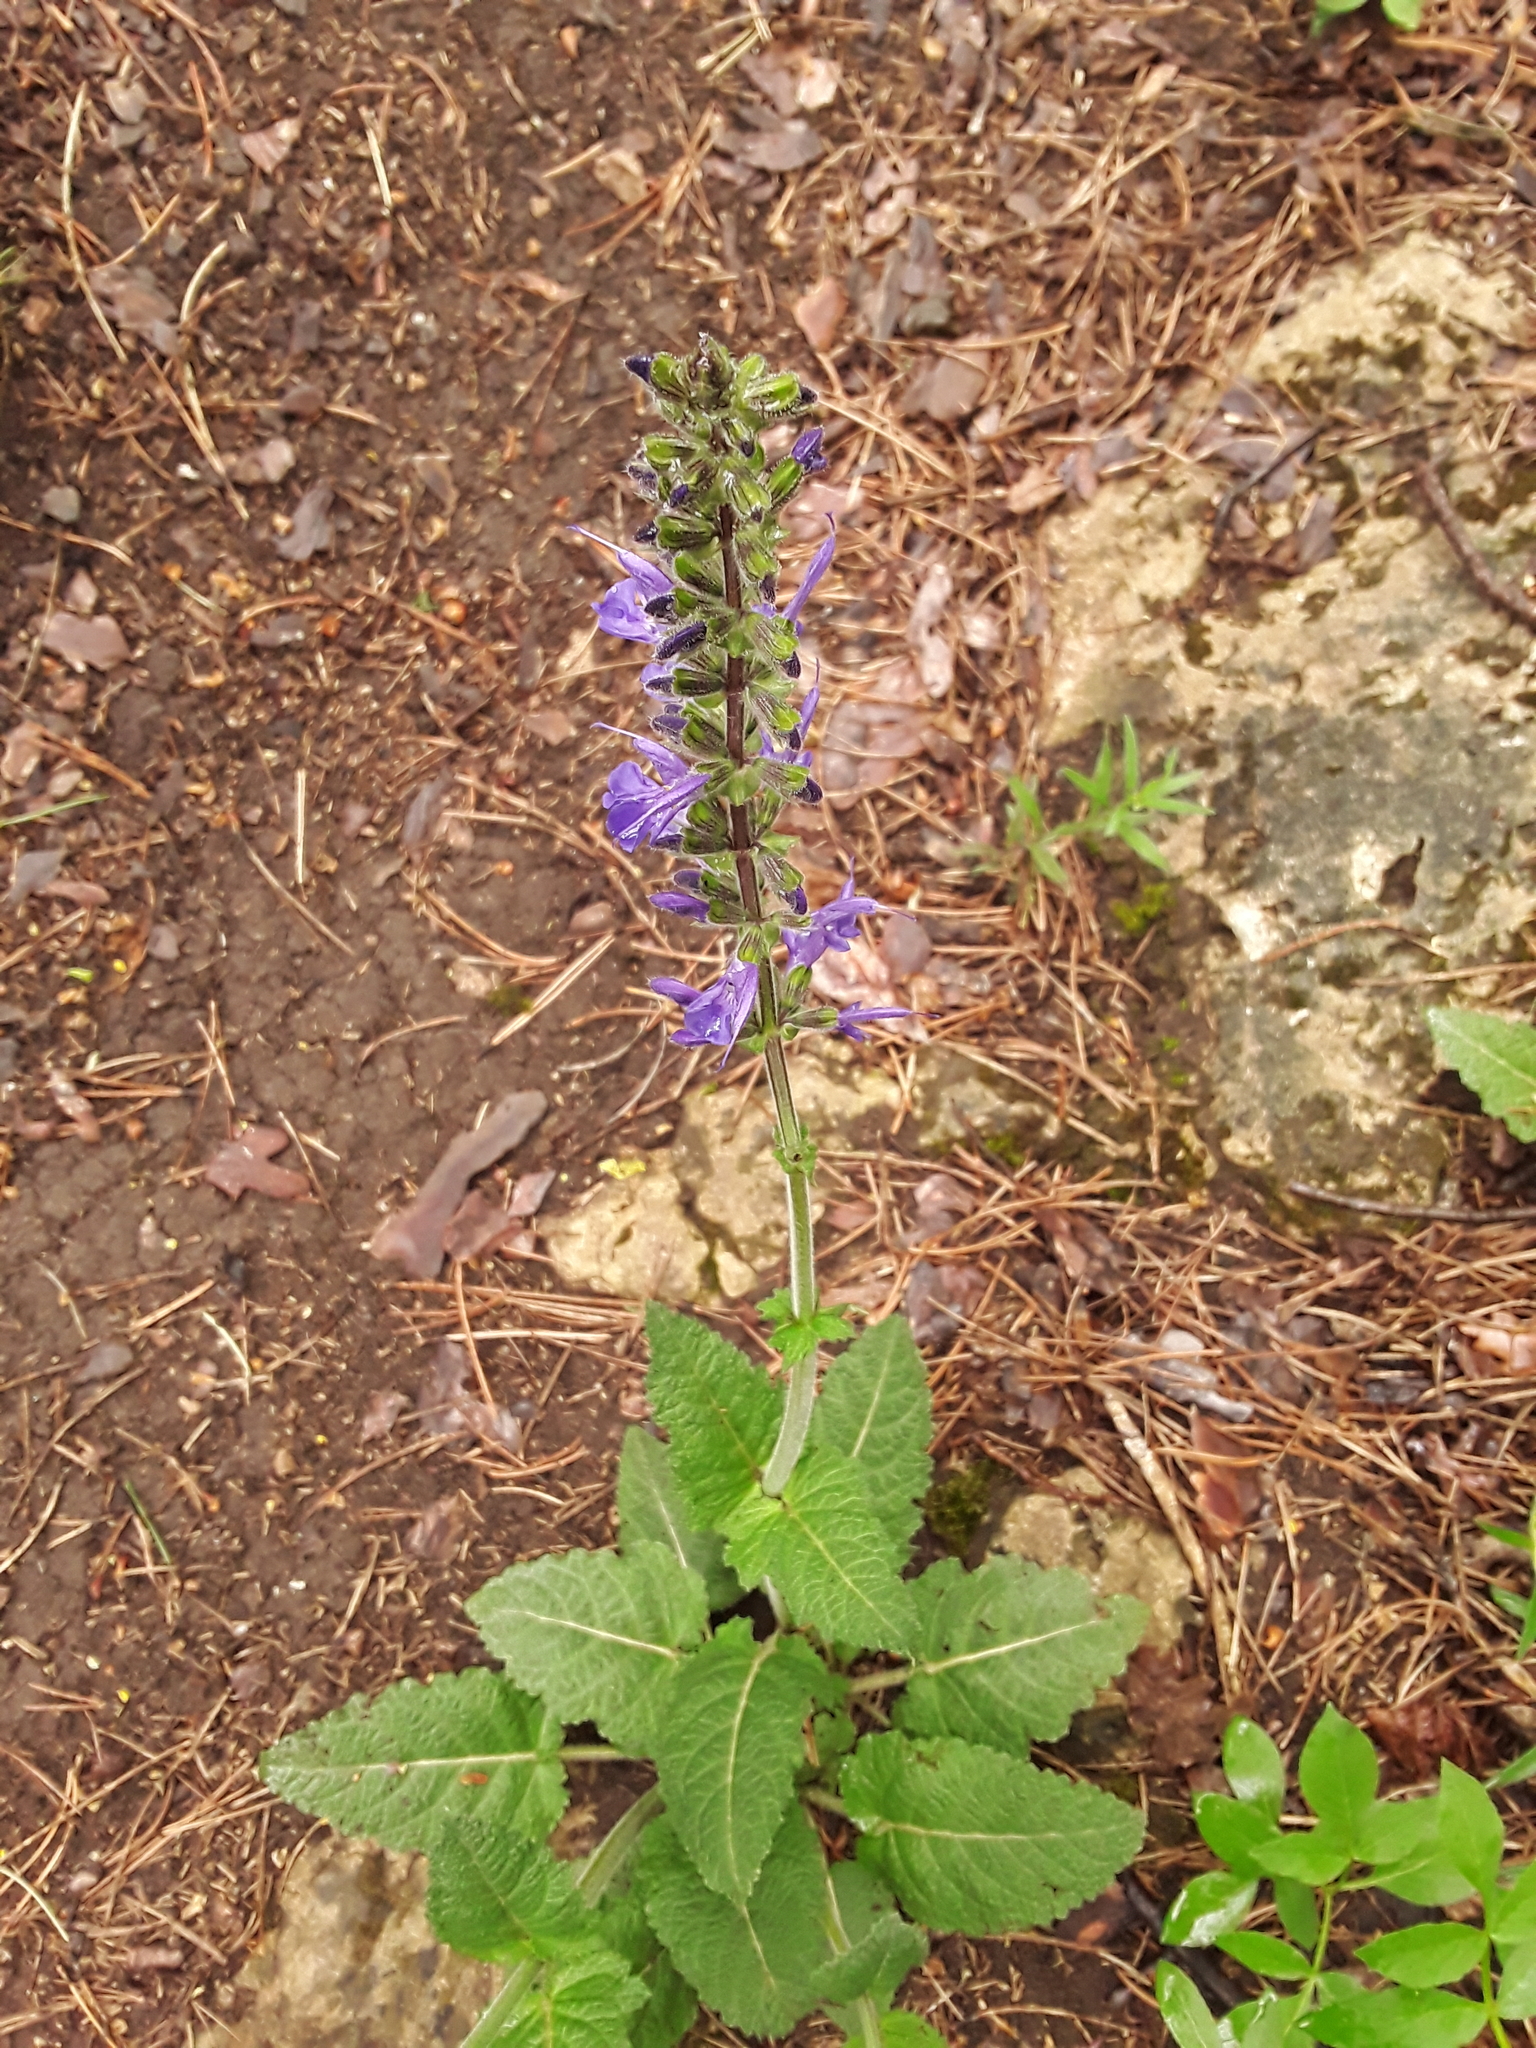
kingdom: Plantae
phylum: Tracheophyta
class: Magnoliopsida
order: Lamiales
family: Lamiaceae
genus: Salvia
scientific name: Salvia pratensis
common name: Meadow sage
